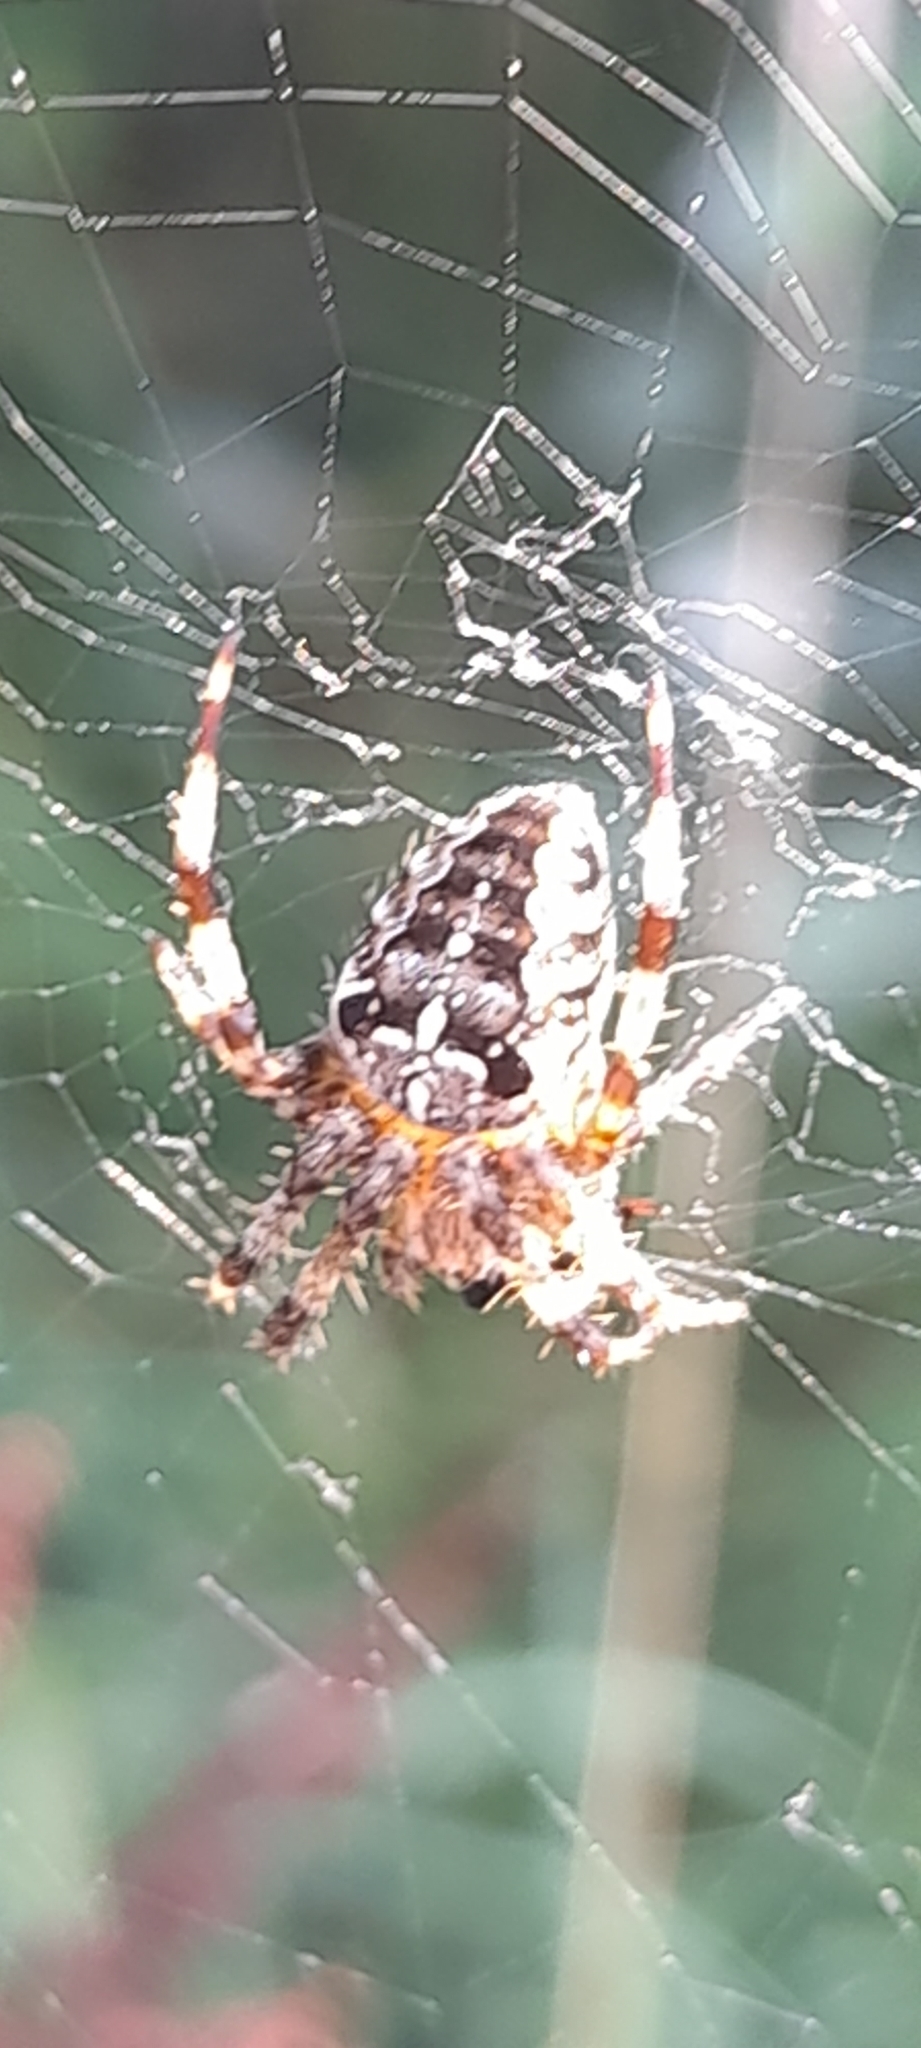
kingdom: Animalia
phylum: Arthropoda
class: Arachnida
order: Araneae
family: Araneidae
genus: Araneus
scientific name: Araneus diadematus
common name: Cross orbweaver
